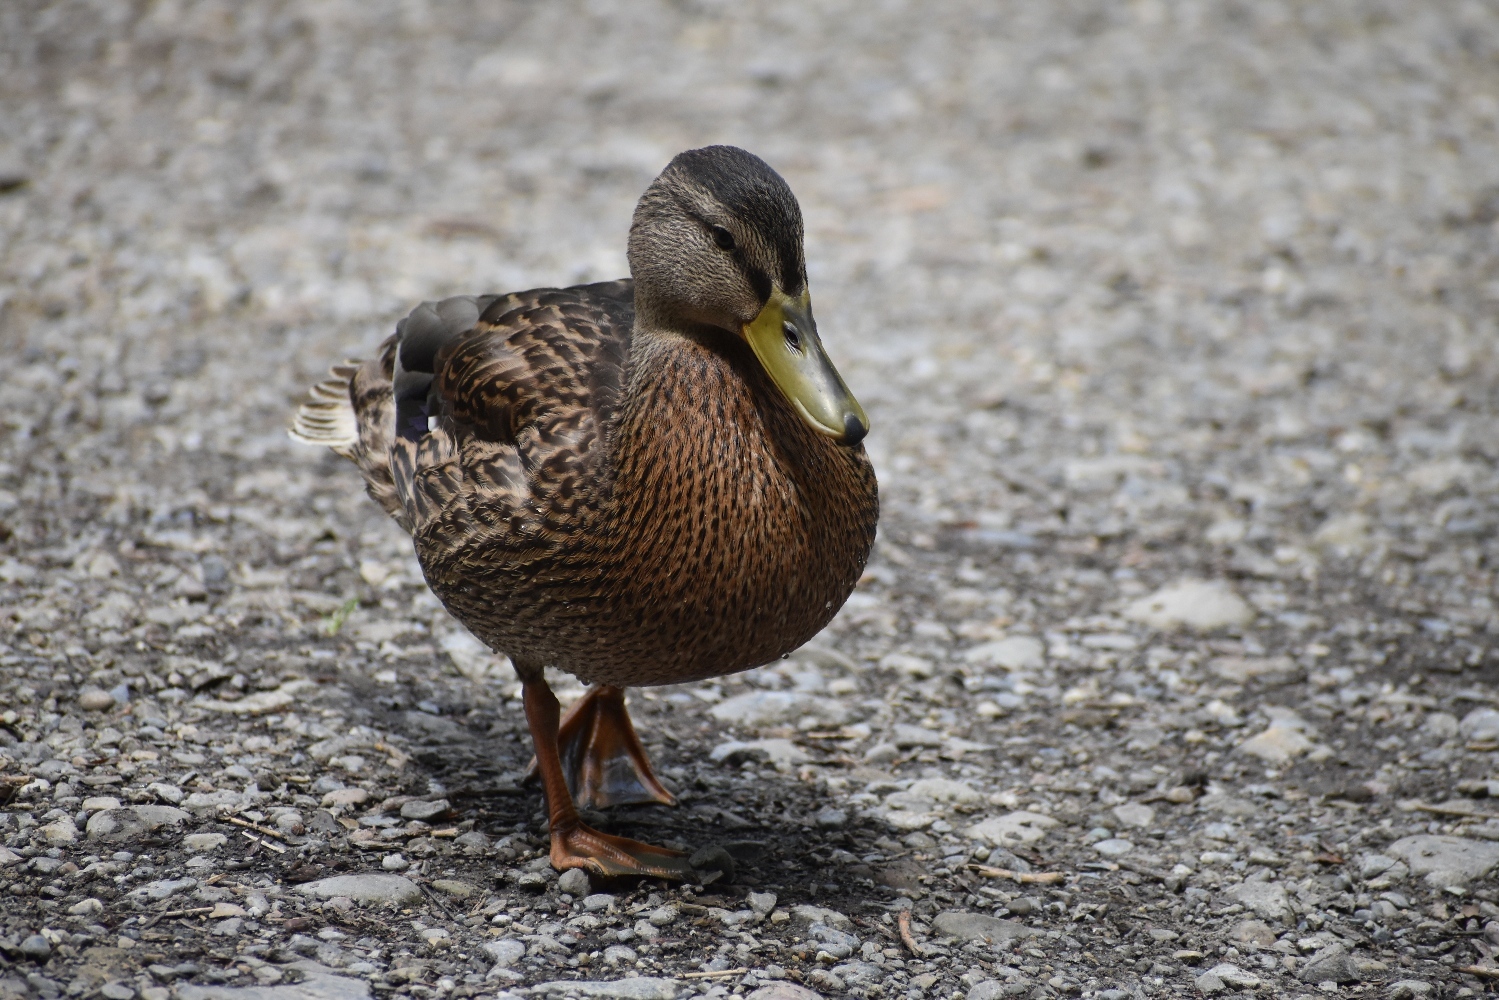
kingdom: Animalia
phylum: Chordata
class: Aves
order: Anseriformes
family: Anatidae
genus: Anas
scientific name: Anas platyrhynchos
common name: Mallard
